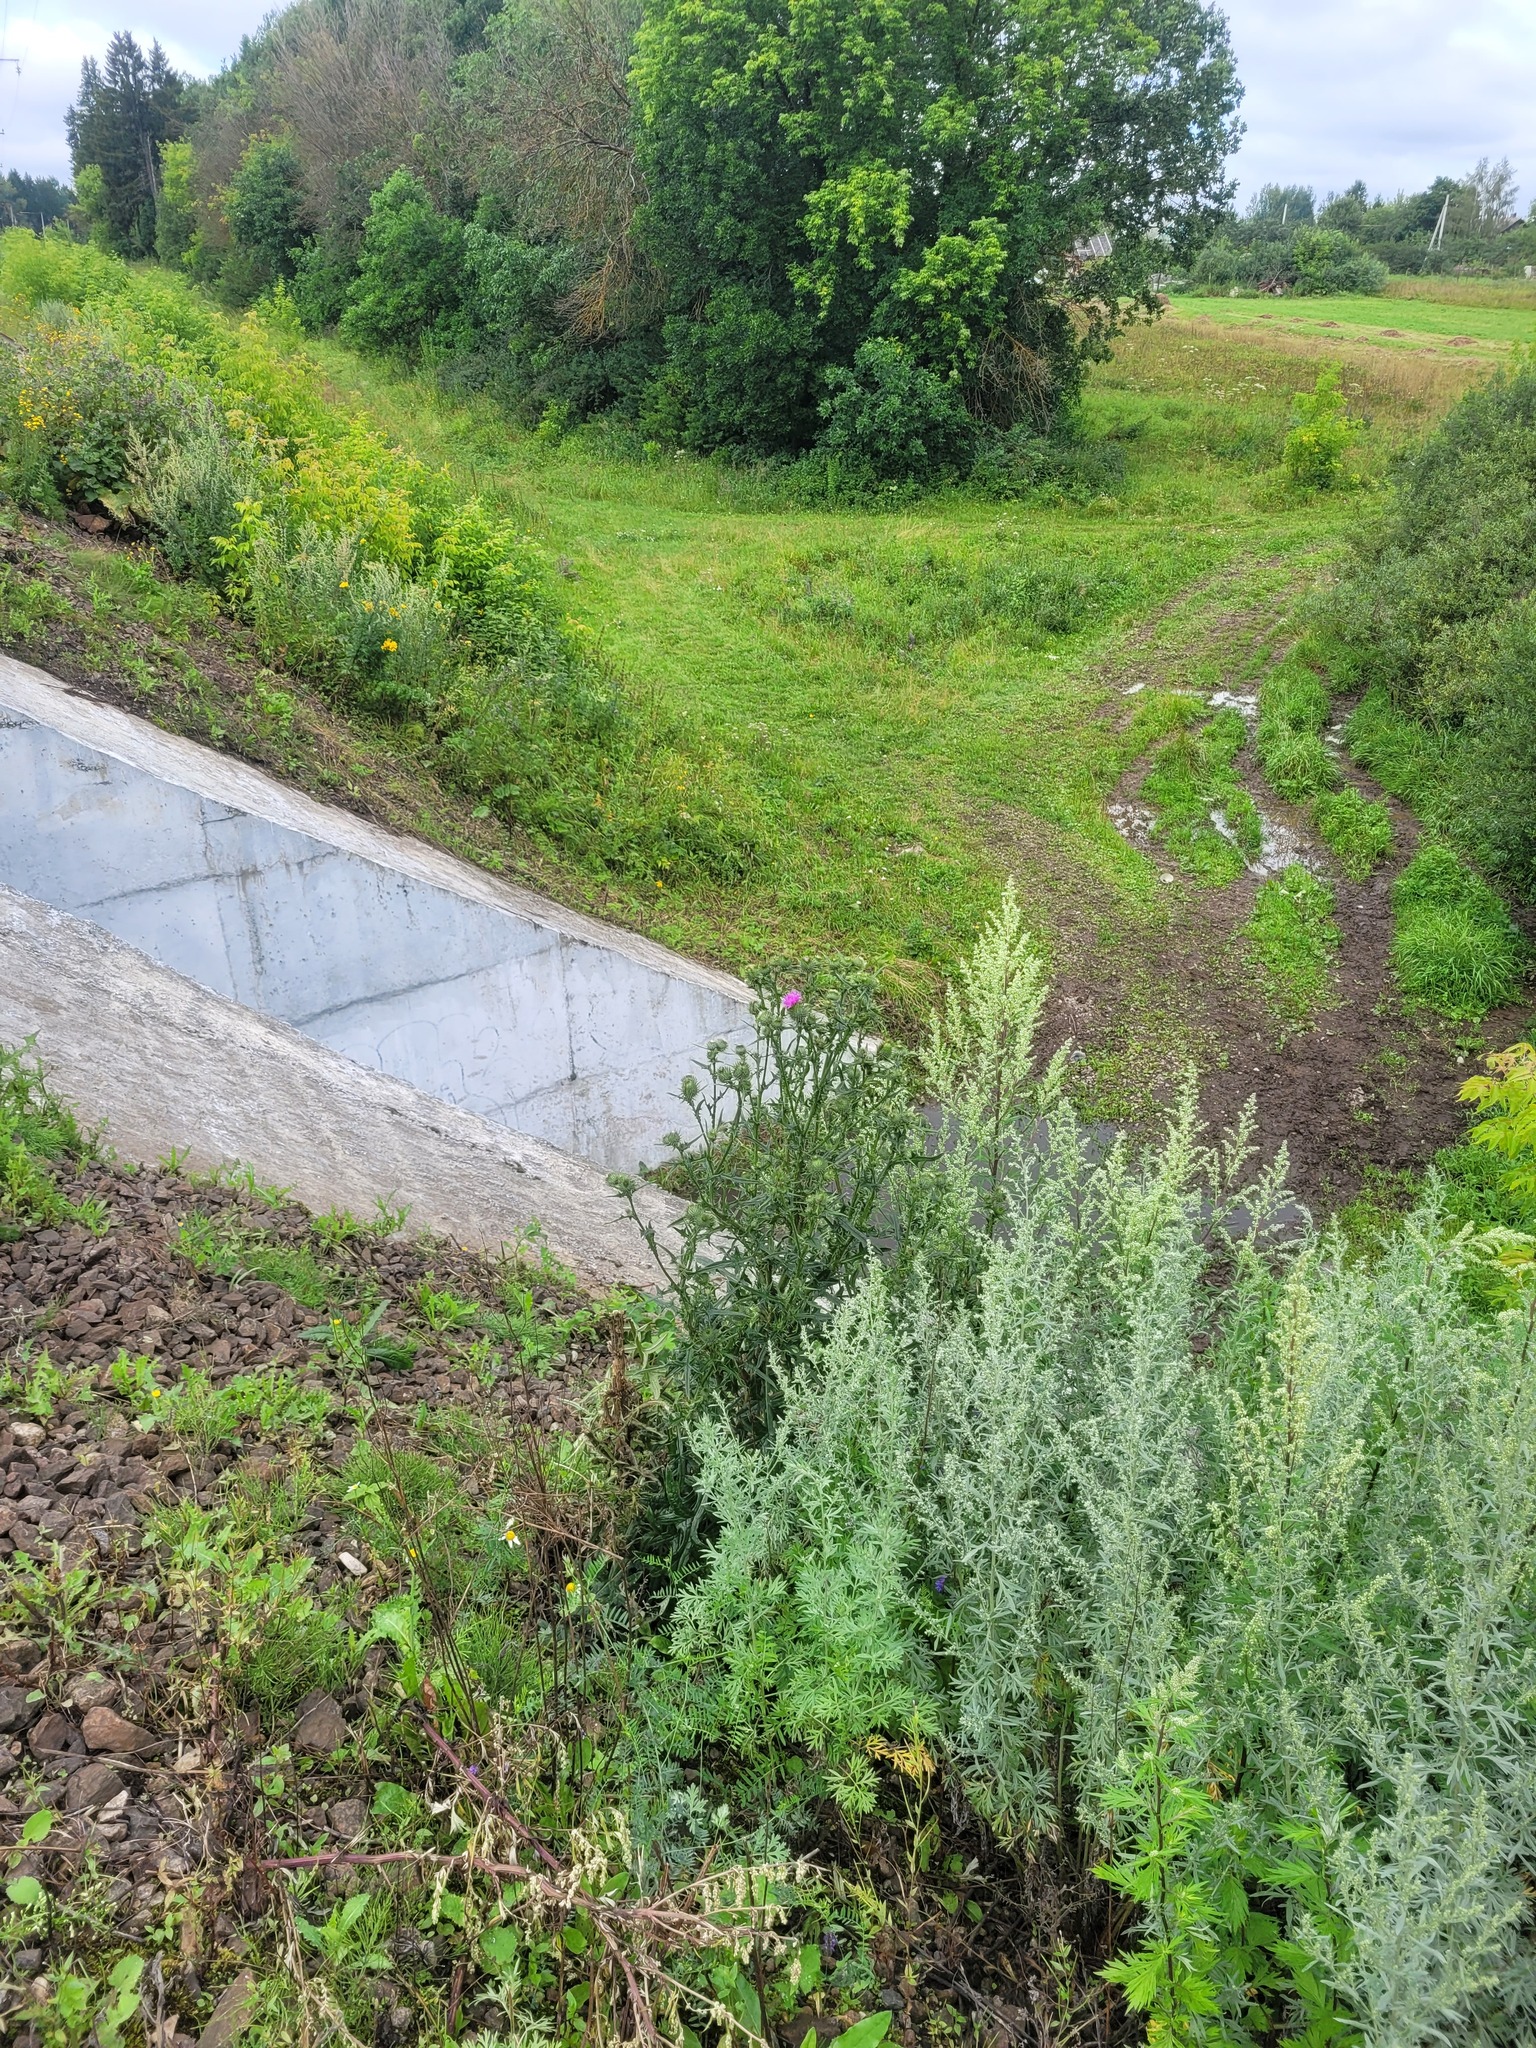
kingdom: Plantae
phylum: Tracheophyta
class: Magnoliopsida
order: Asterales
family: Asteraceae
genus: Cirsium
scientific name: Cirsium vulgare
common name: Bull thistle
